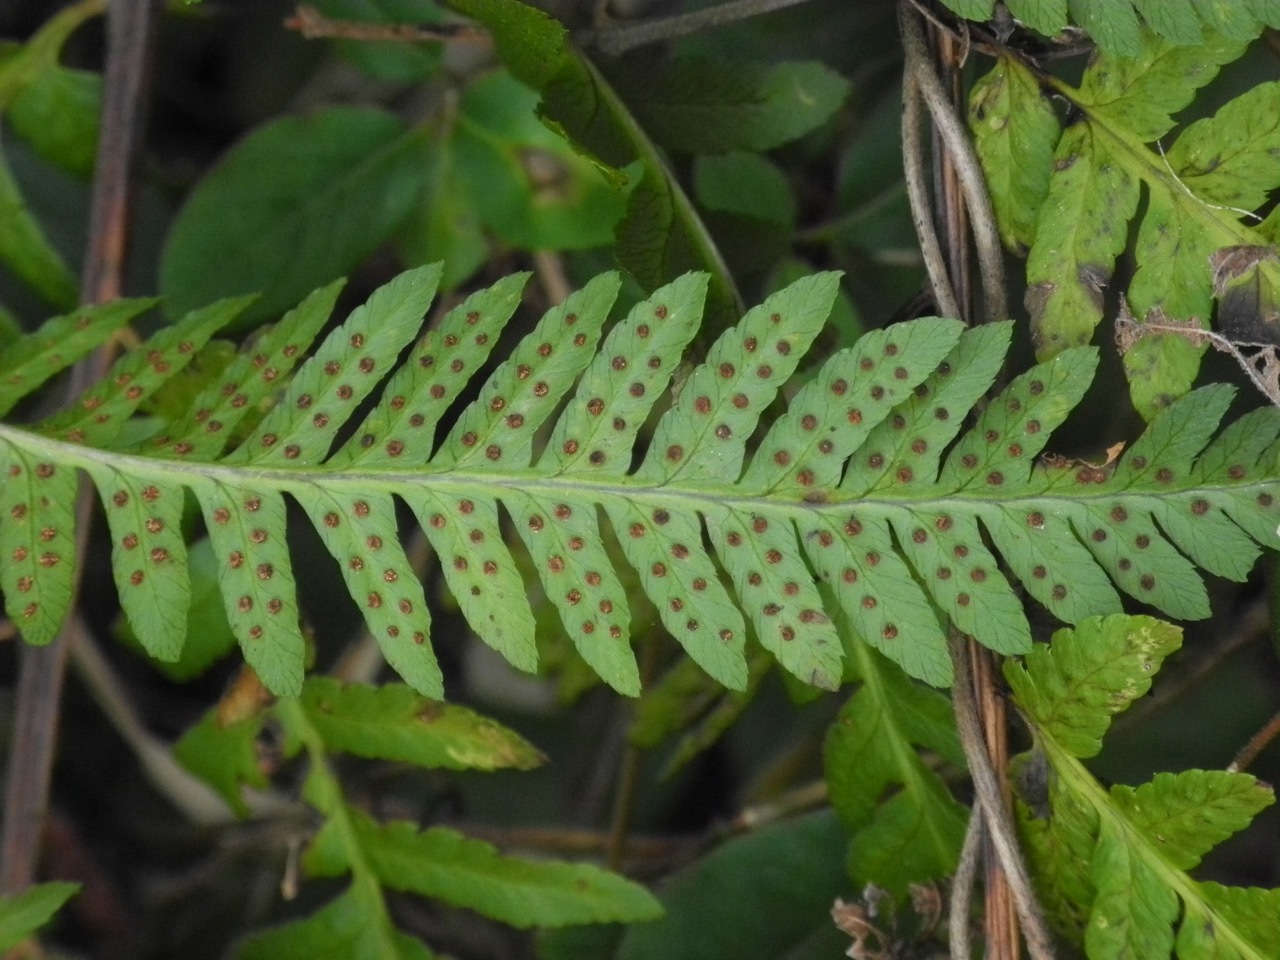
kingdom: Plantae
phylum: Tracheophyta
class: Polypodiopsida
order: Polypodiales
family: Dryopteridaceae
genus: Dryopteris
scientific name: Dryopteris celsa
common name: Log fern
